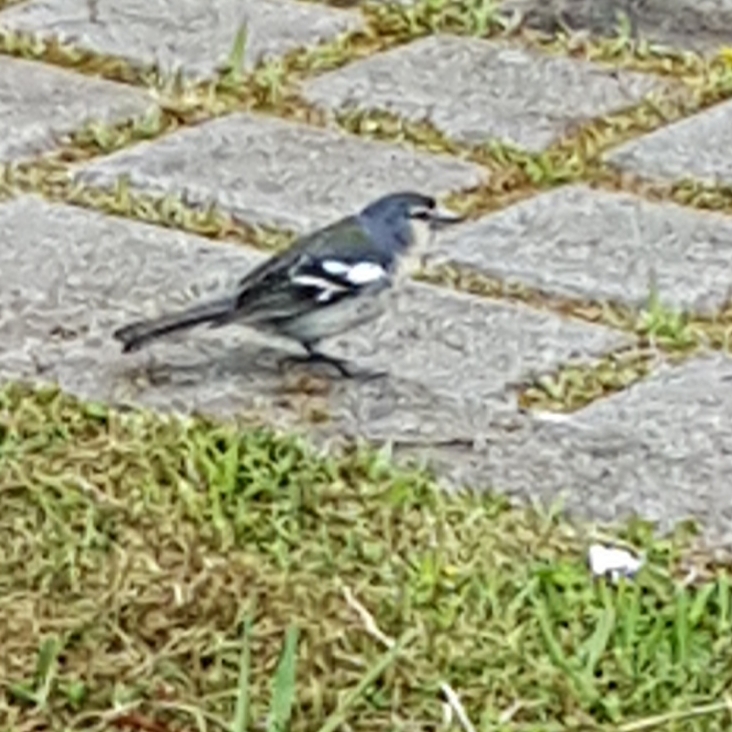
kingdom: Animalia
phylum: Chordata
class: Aves
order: Passeriformes
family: Fringillidae
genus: Fringilla
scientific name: Fringilla moreletti
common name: Azores chaffinch
